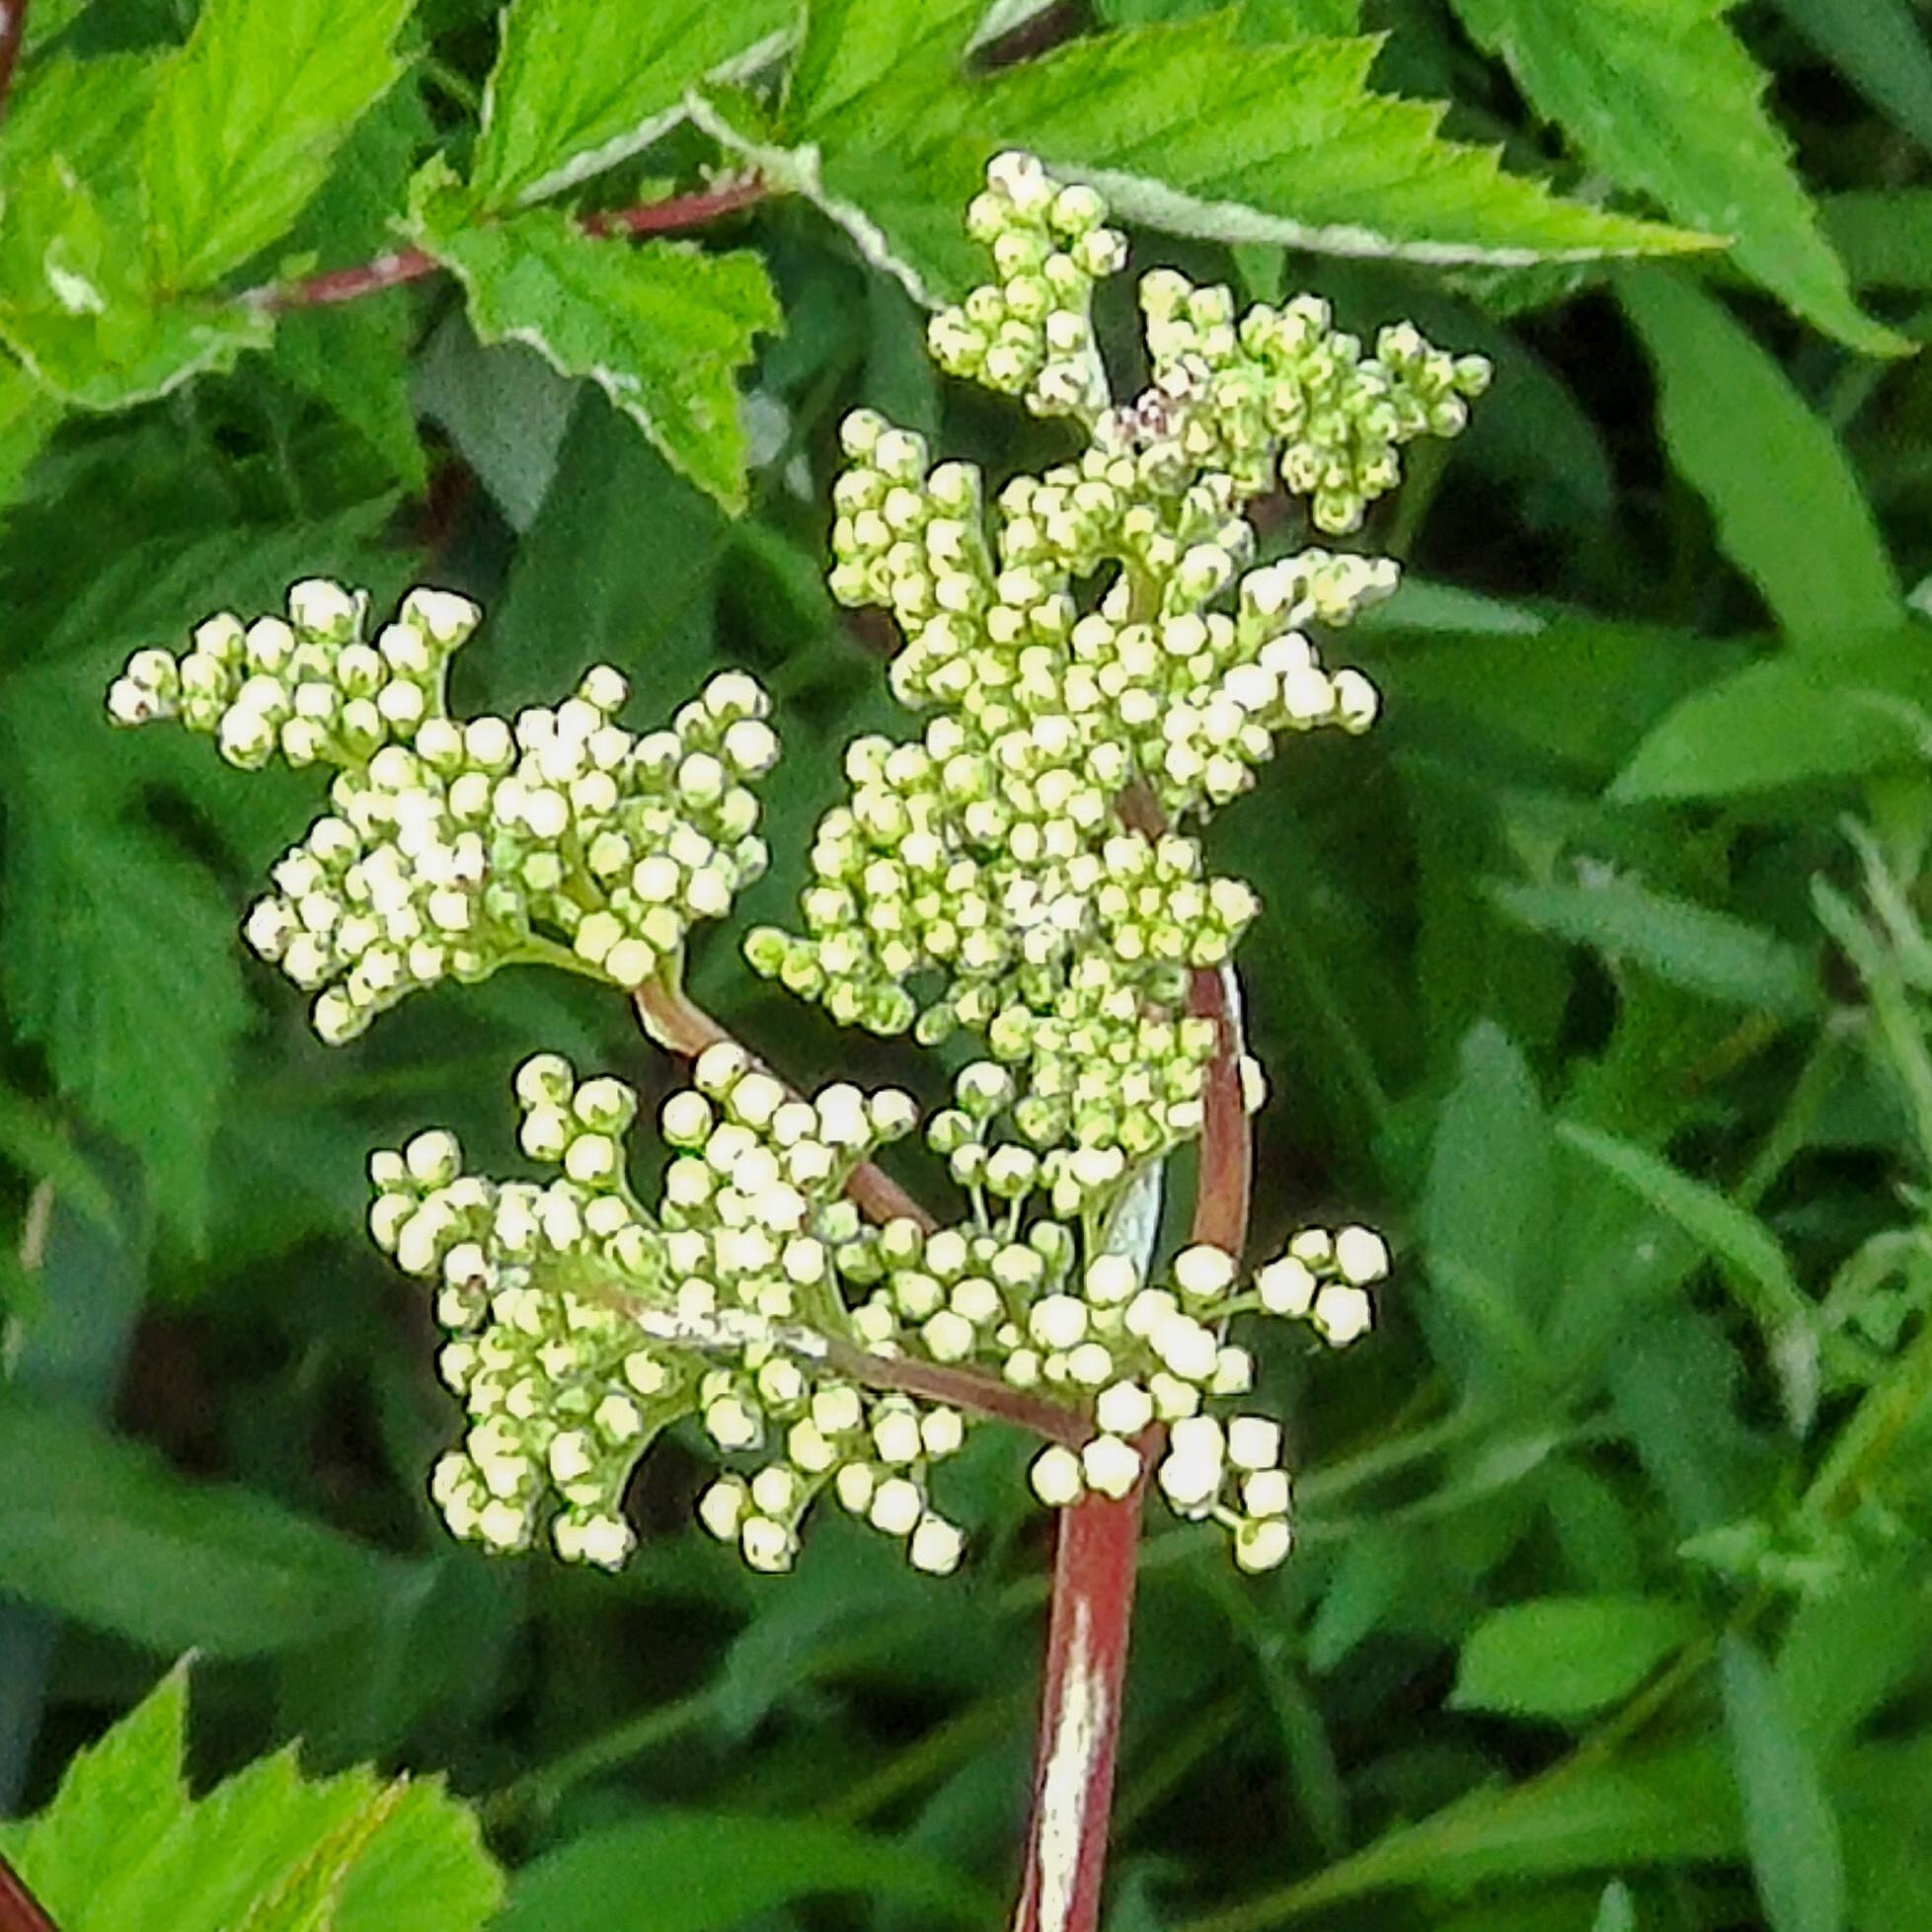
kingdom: Plantae
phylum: Tracheophyta
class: Magnoliopsida
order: Rosales
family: Rosaceae
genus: Filipendula
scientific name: Filipendula ulmaria
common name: Meadowsweet
